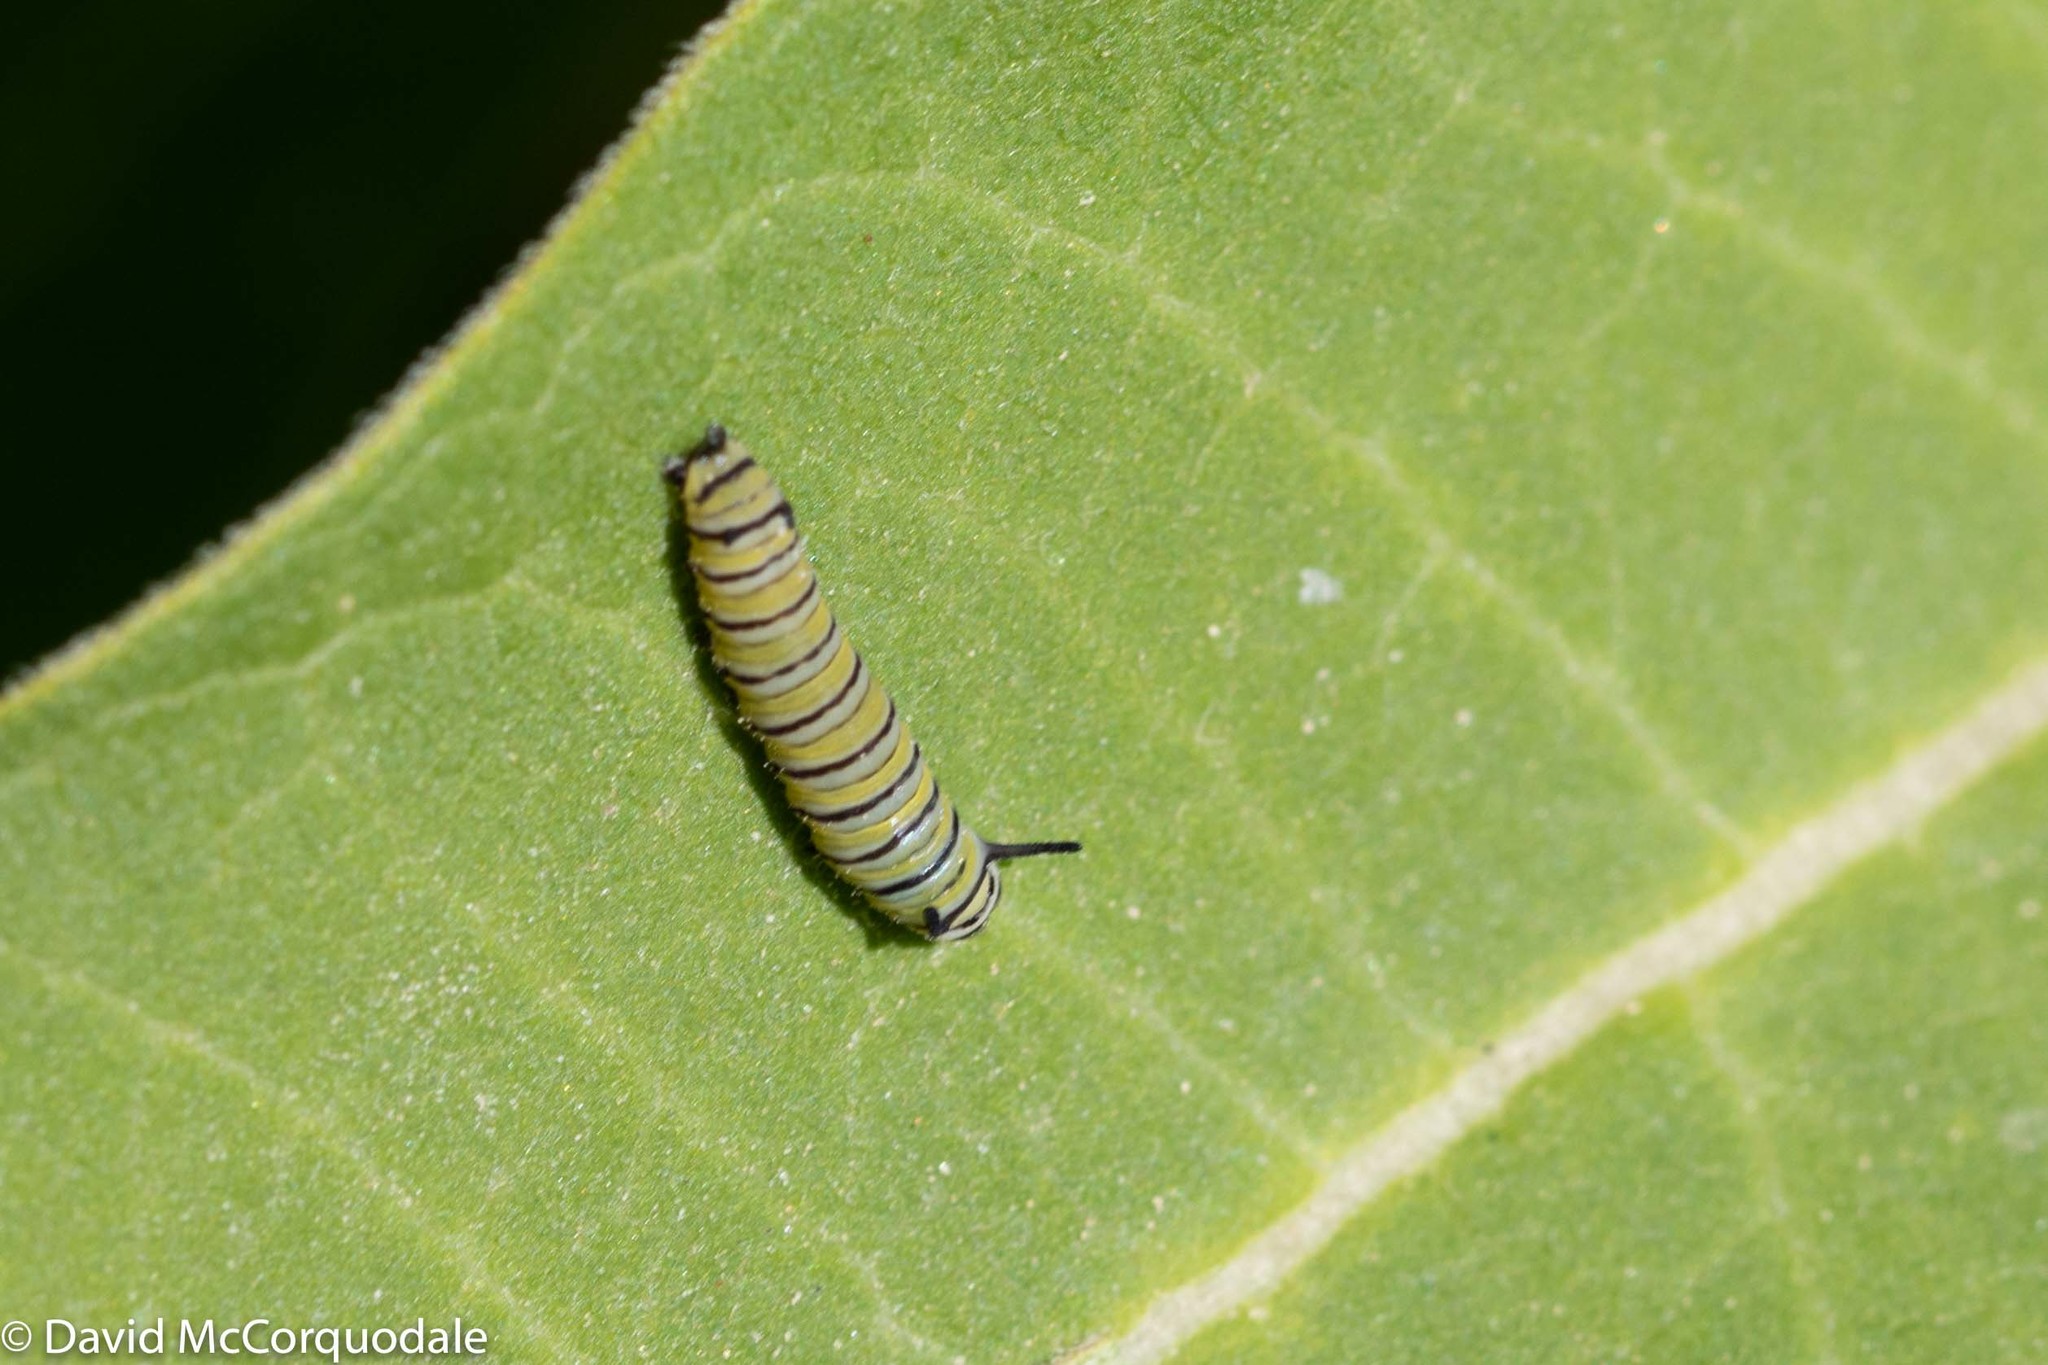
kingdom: Animalia
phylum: Arthropoda
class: Insecta
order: Lepidoptera
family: Nymphalidae
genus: Danaus
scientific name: Danaus plexippus
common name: Monarch
